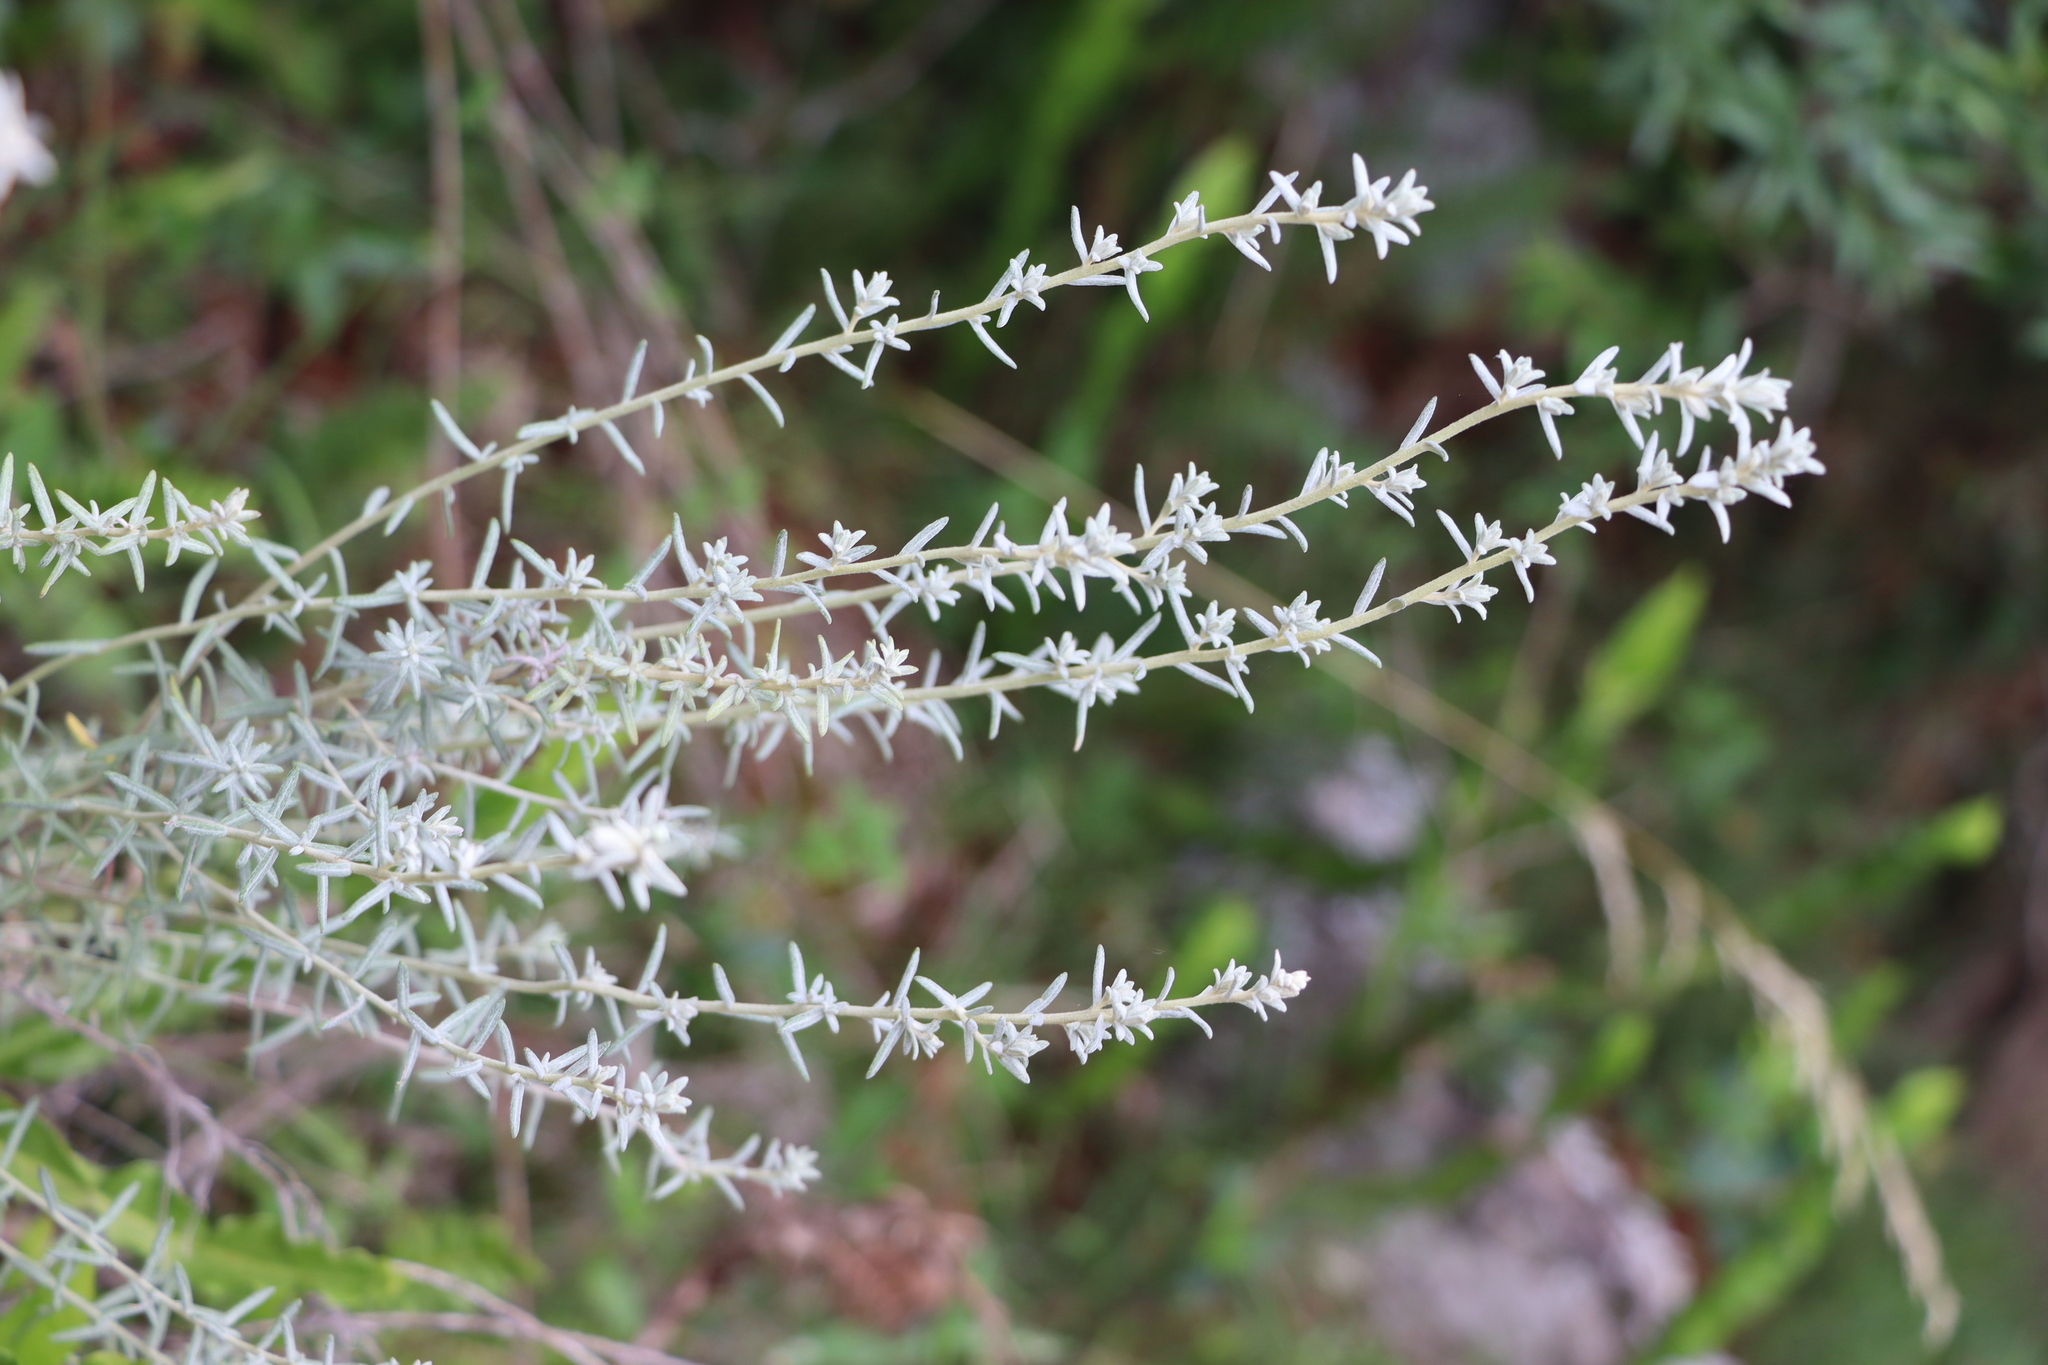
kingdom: Plantae
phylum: Tracheophyta
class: Magnoliopsida
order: Asterales
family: Asteraceae
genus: Baccharis
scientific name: Baccharis ochracea
